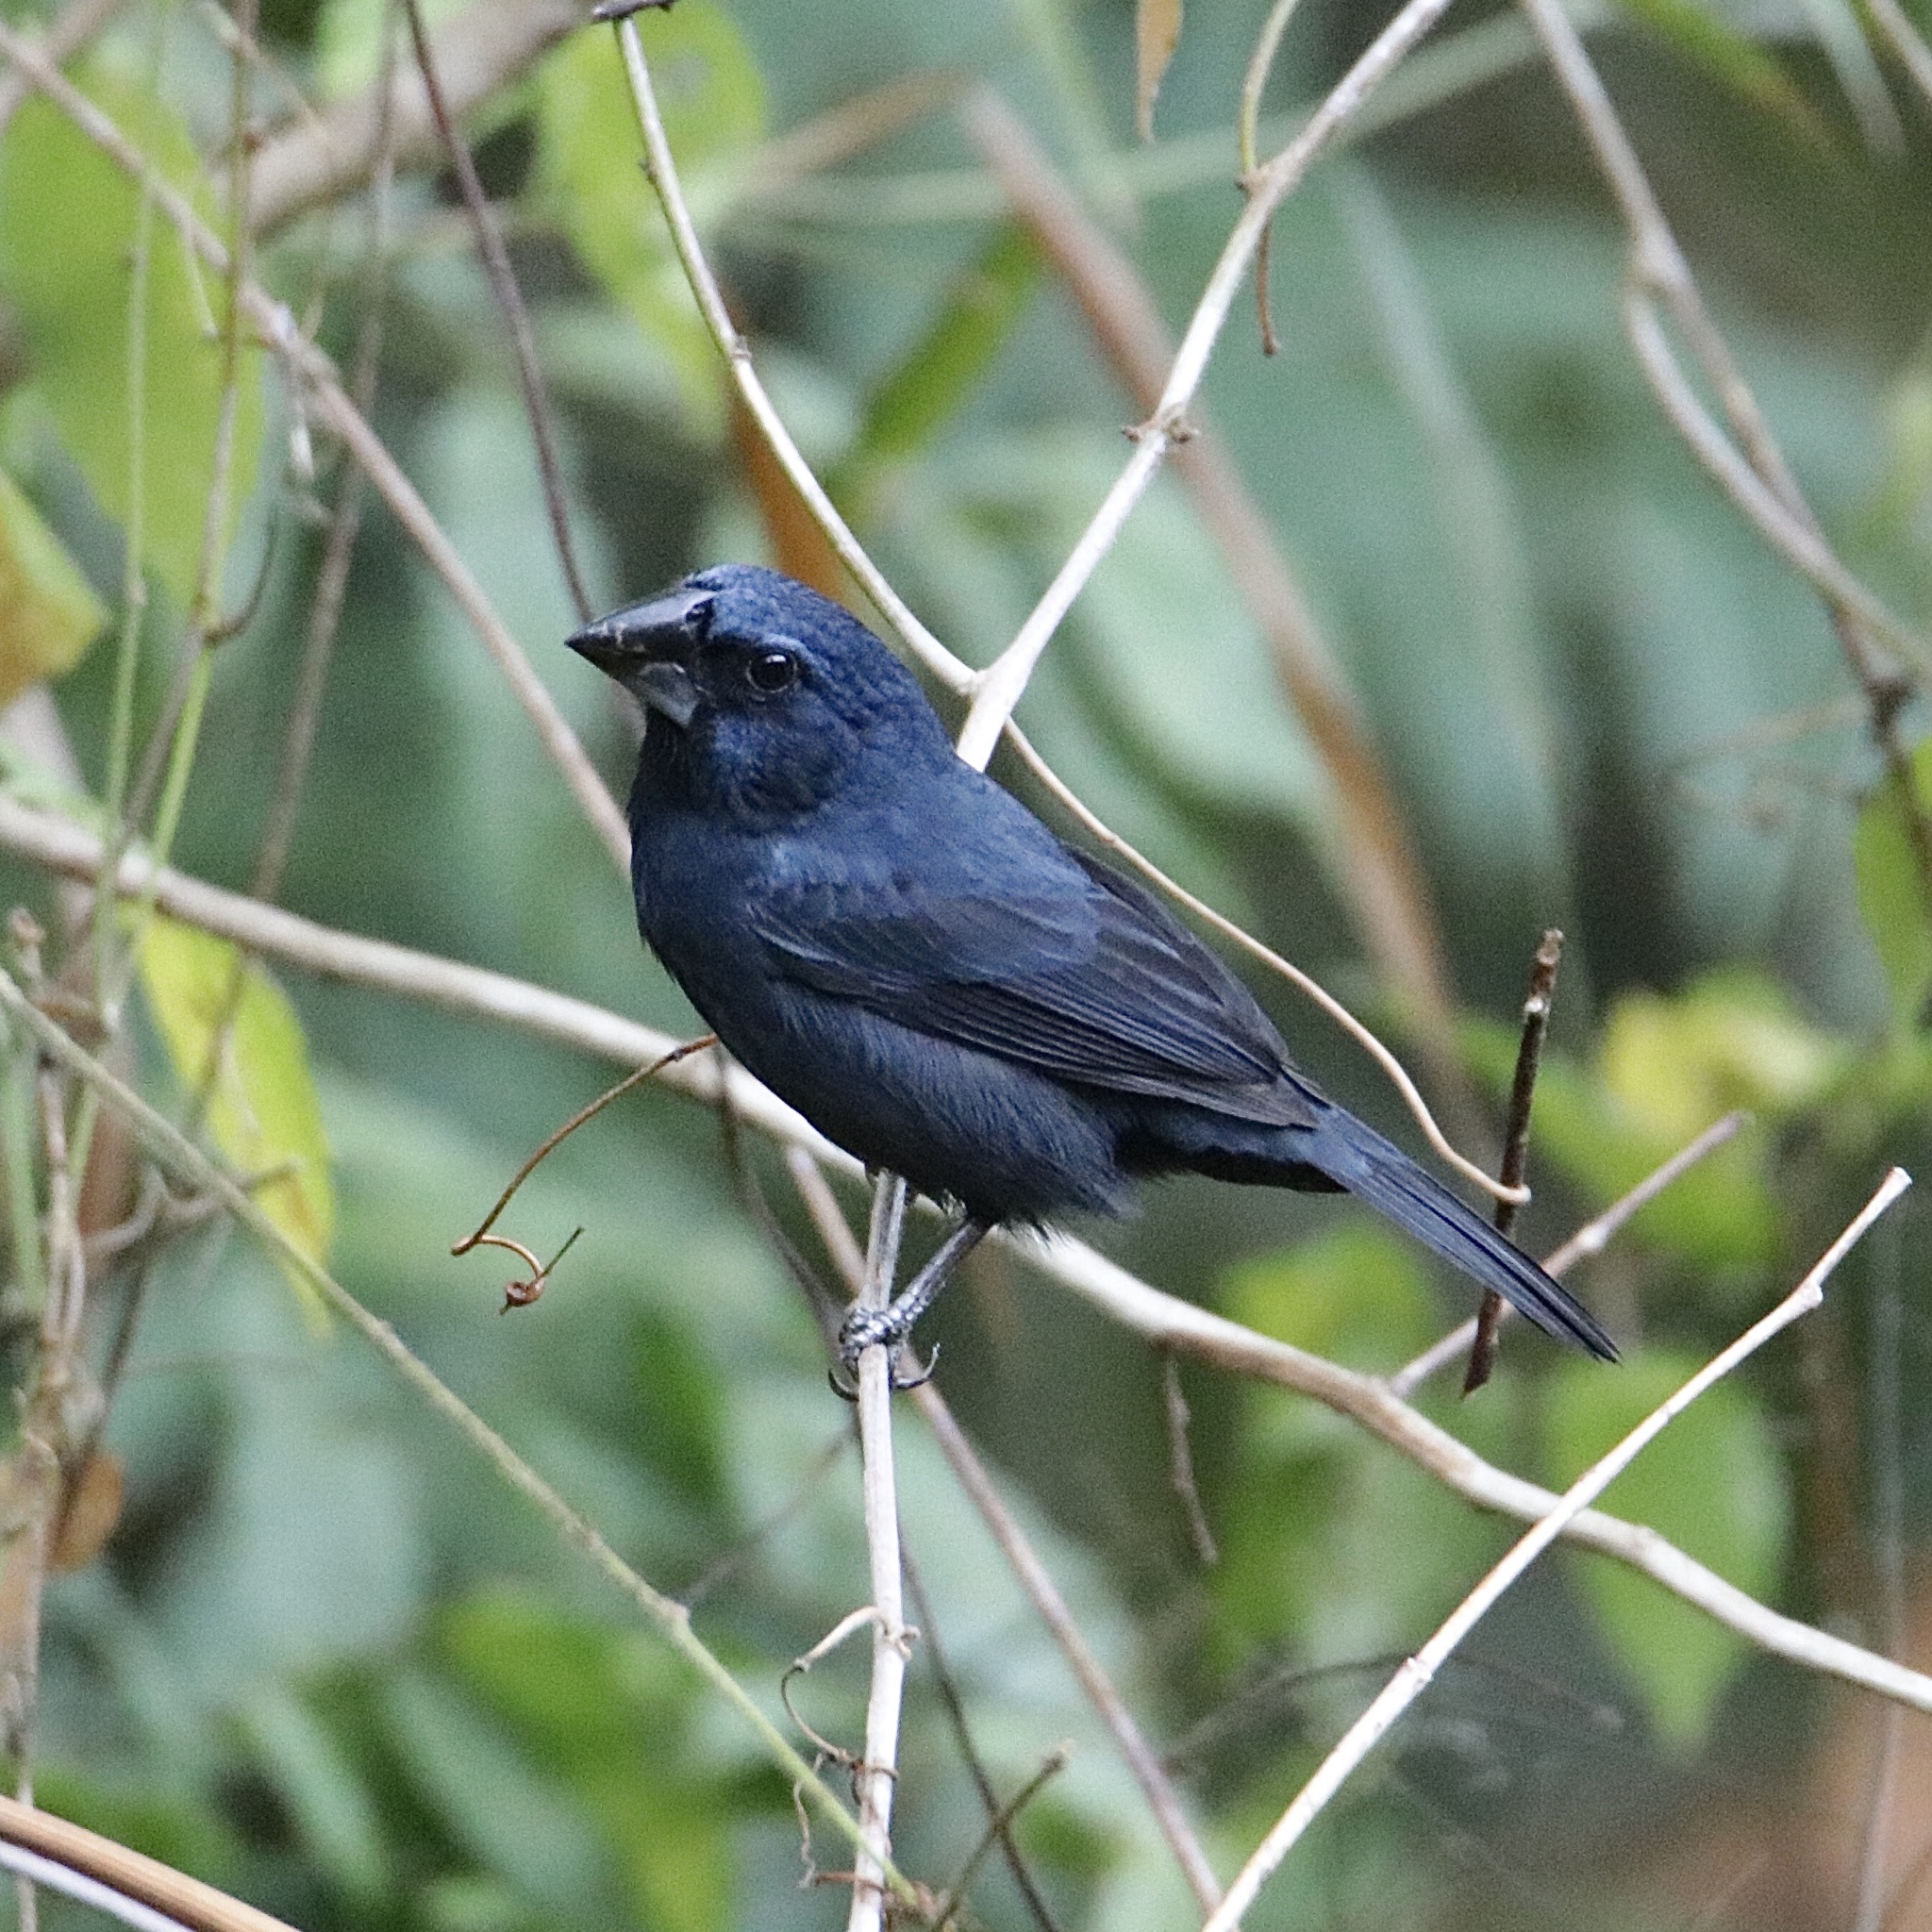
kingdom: Animalia
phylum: Chordata
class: Aves
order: Passeriformes
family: Cardinalidae
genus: Cyanocompsa
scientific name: Cyanocompsa cyanoides
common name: Blue-black grosbeak
